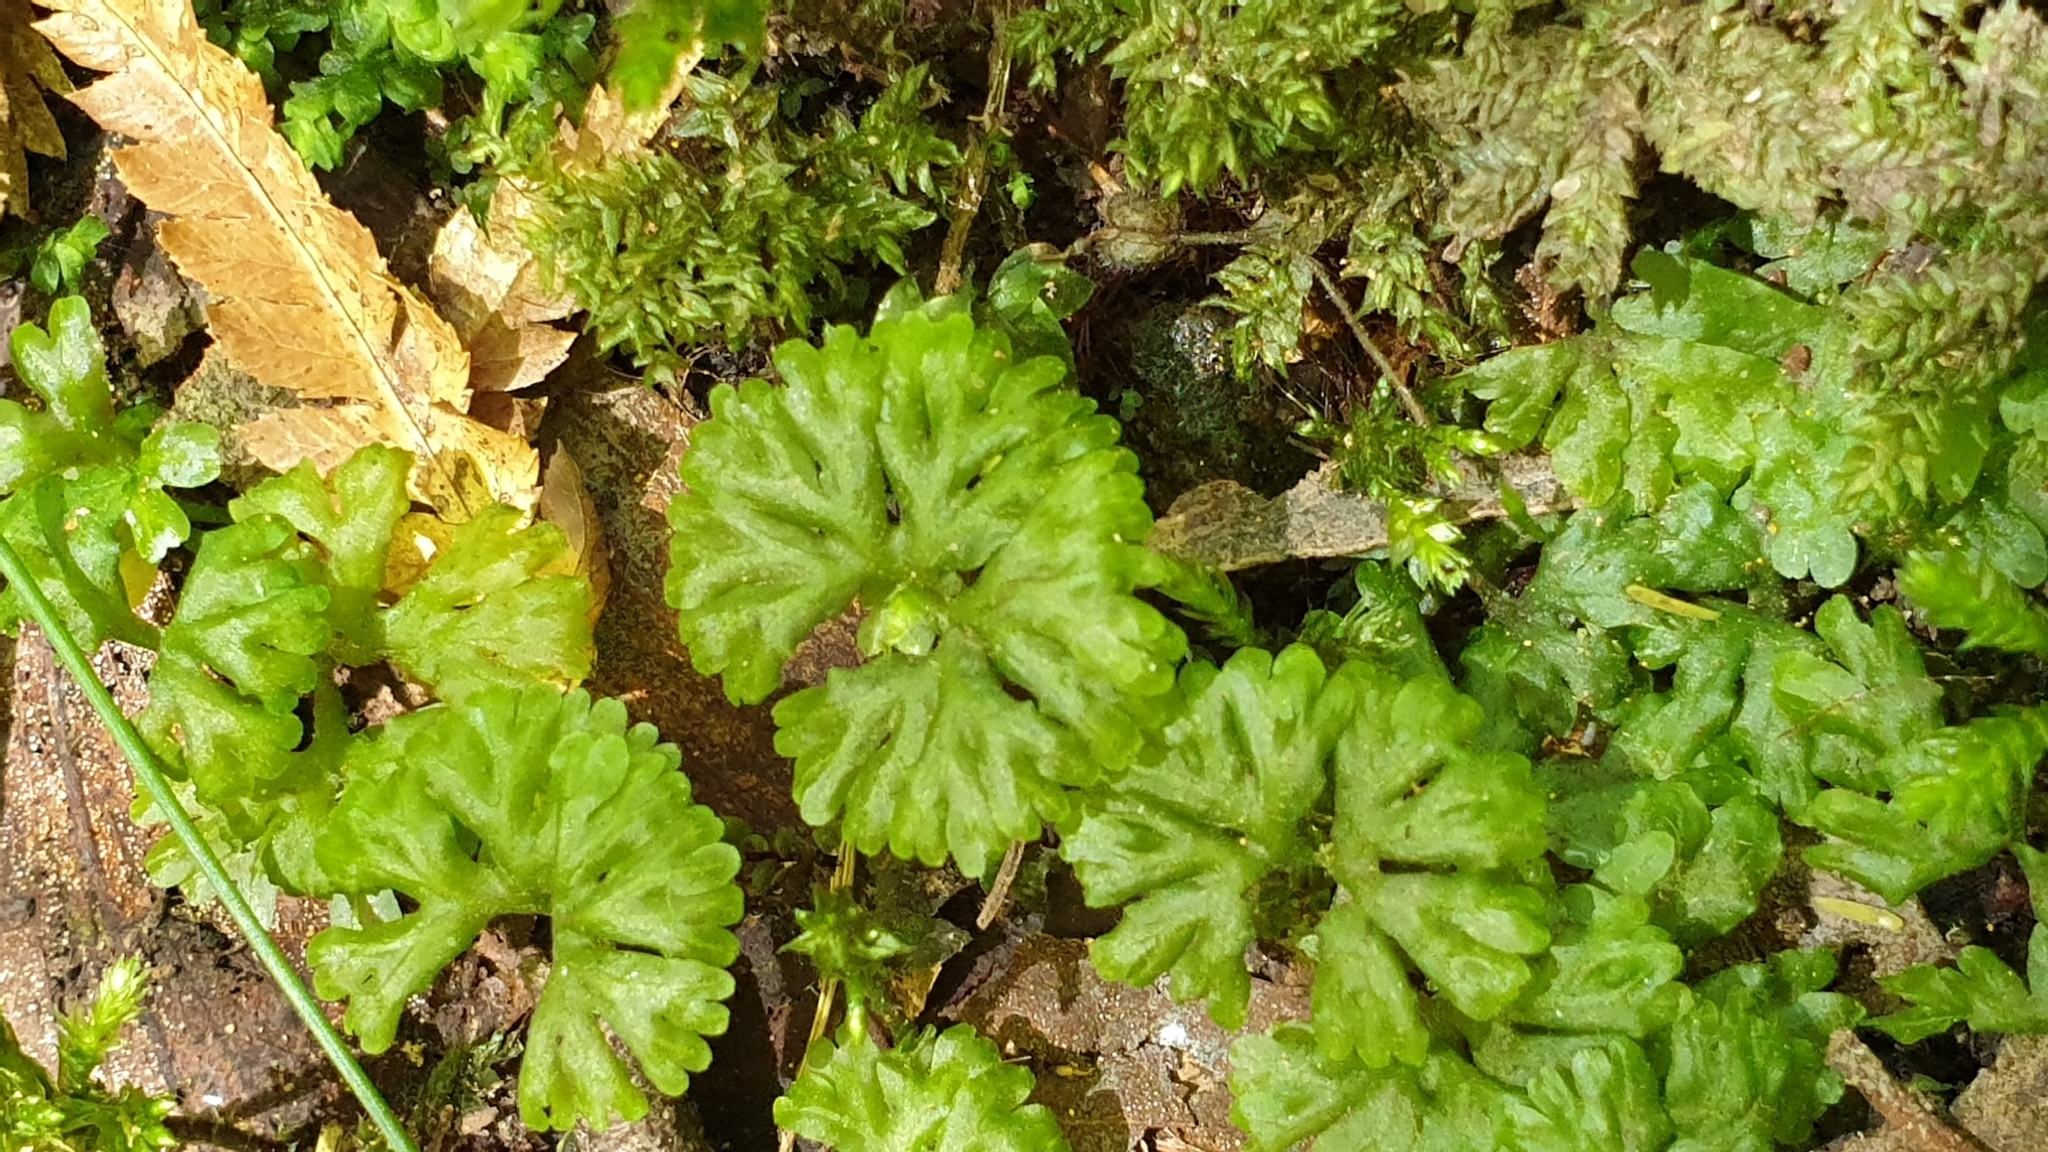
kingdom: Plantae
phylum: Marchantiophyta
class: Jungermanniopsida
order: Pallaviciniales
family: Hymenophytaceae
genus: Hymenophyton
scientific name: Hymenophyton flabellatum
